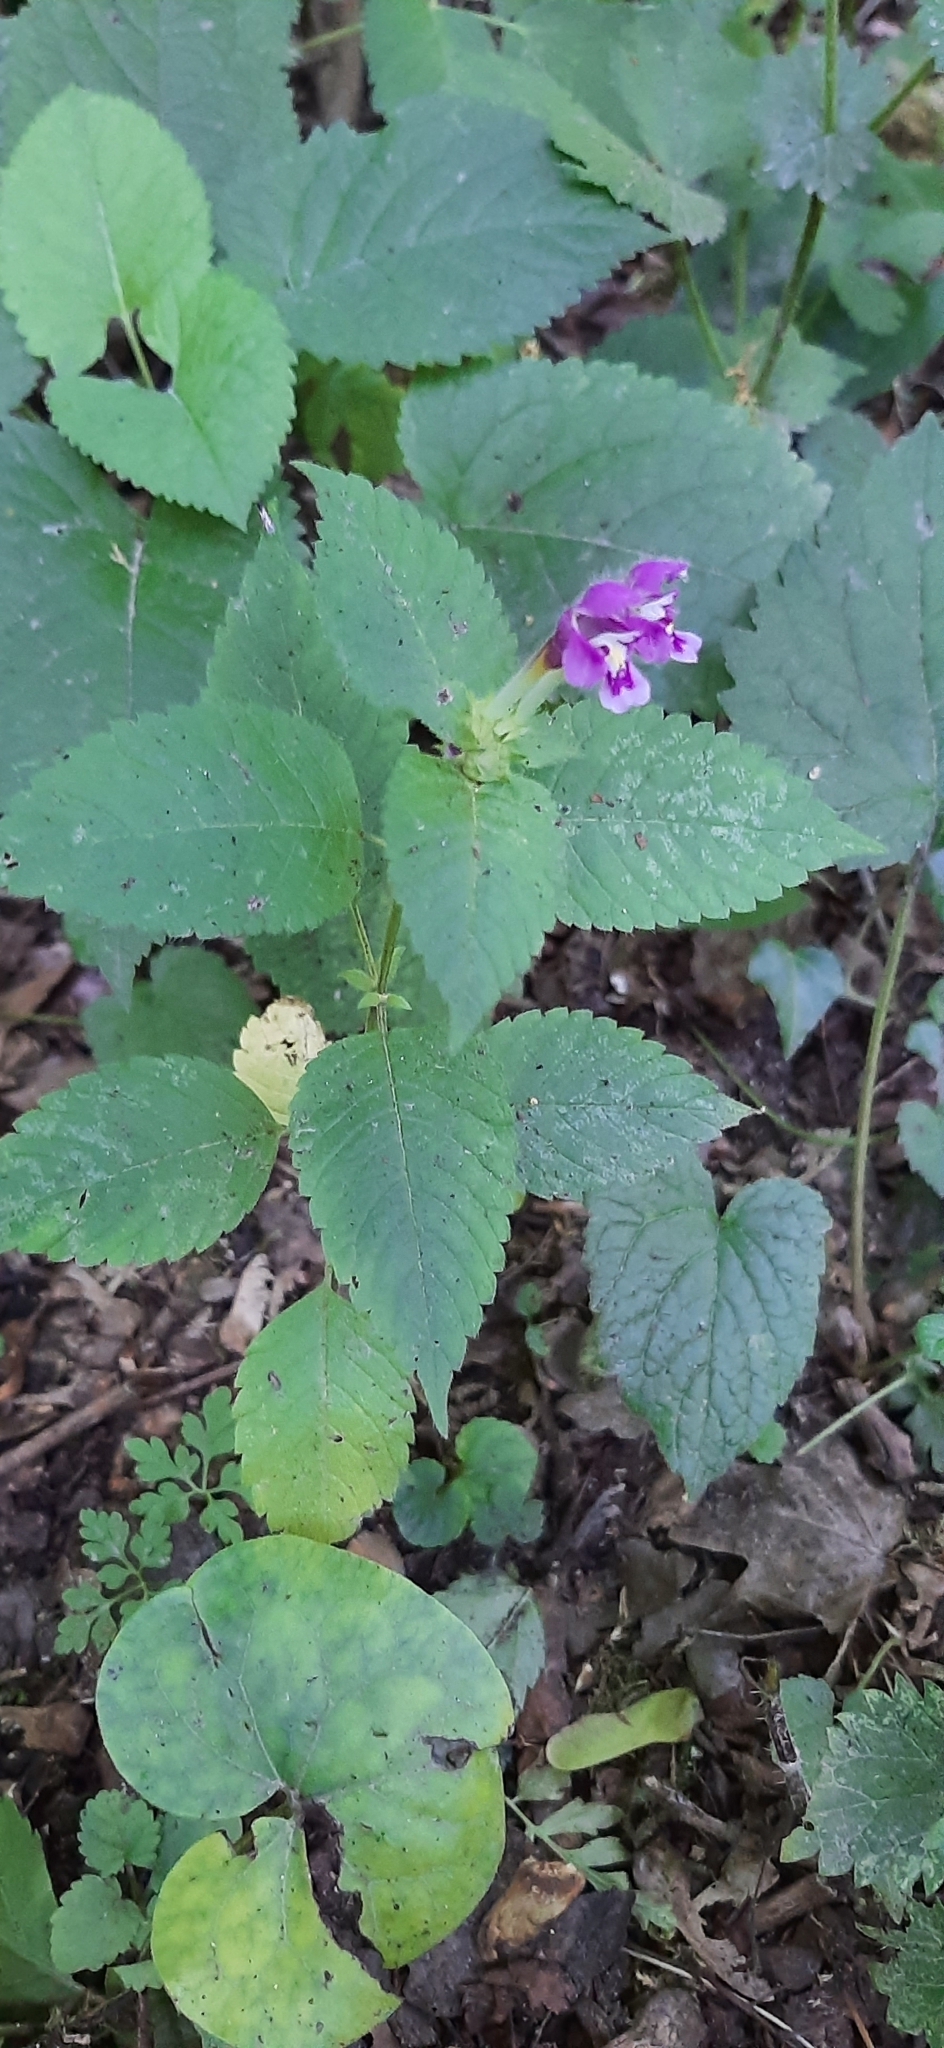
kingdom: Plantae
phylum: Tracheophyta
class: Magnoliopsida
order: Lamiales
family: Lamiaceae
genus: Galeopsis
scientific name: Galeopsis pubescens
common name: Downy hemp-nettle
